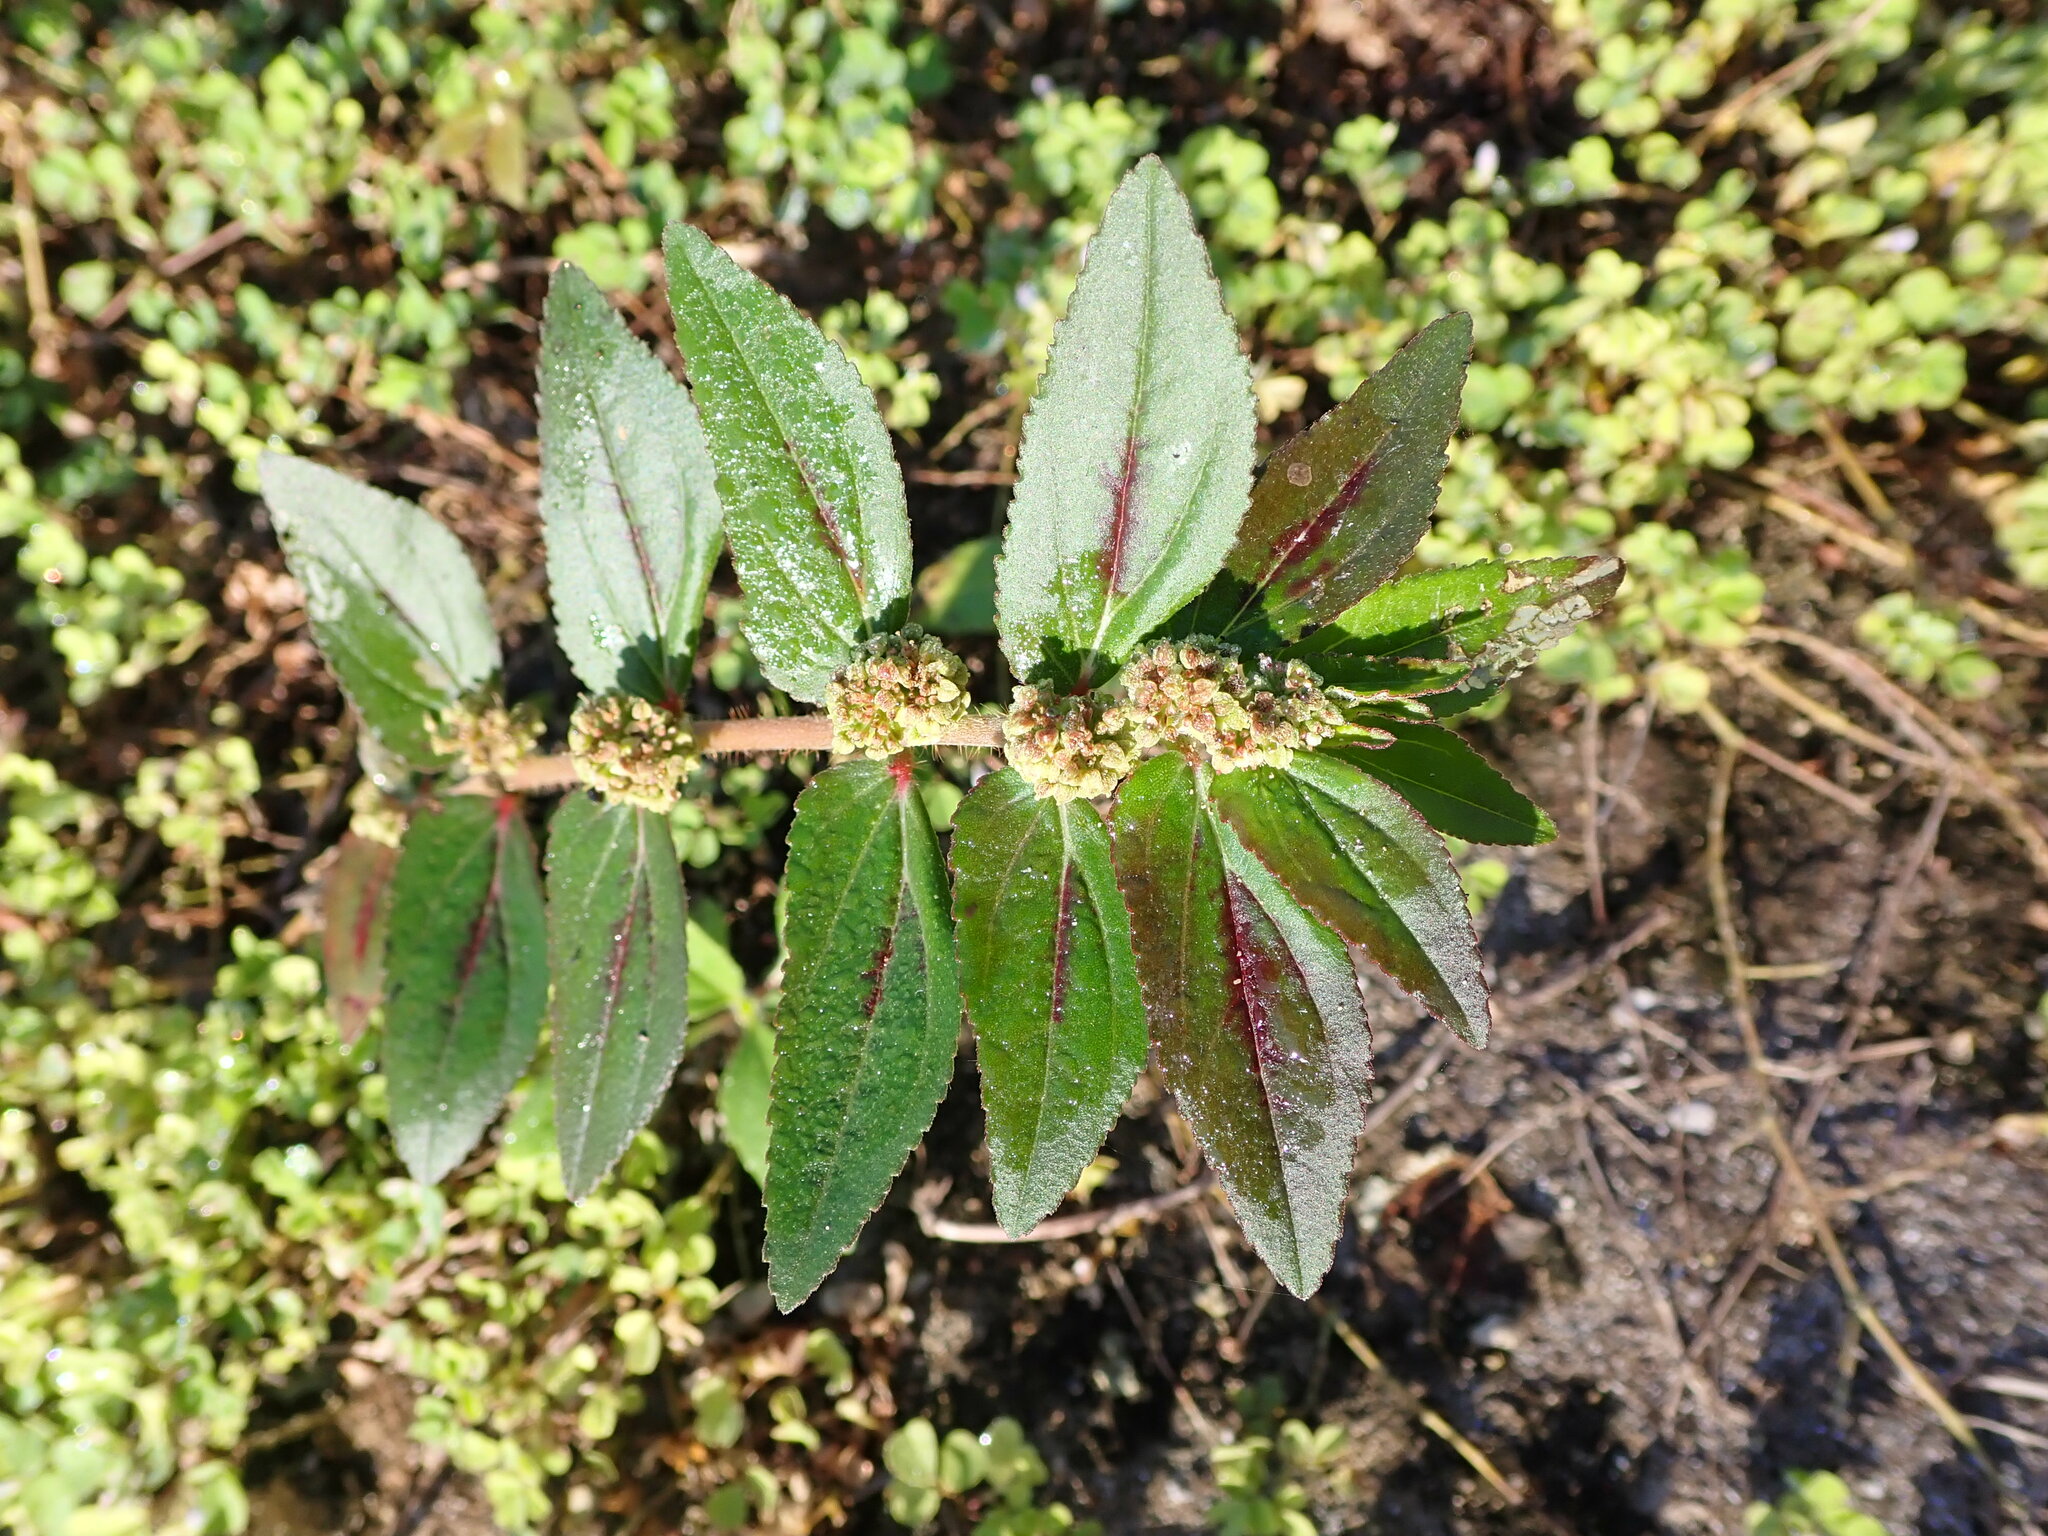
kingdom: Plantae
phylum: Tracheophyta
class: Magnoliopsida
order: Malpighiales
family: Euphorbiaceae
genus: Euphorbia
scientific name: Euphorbia hirta
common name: Pillpod sandmat
